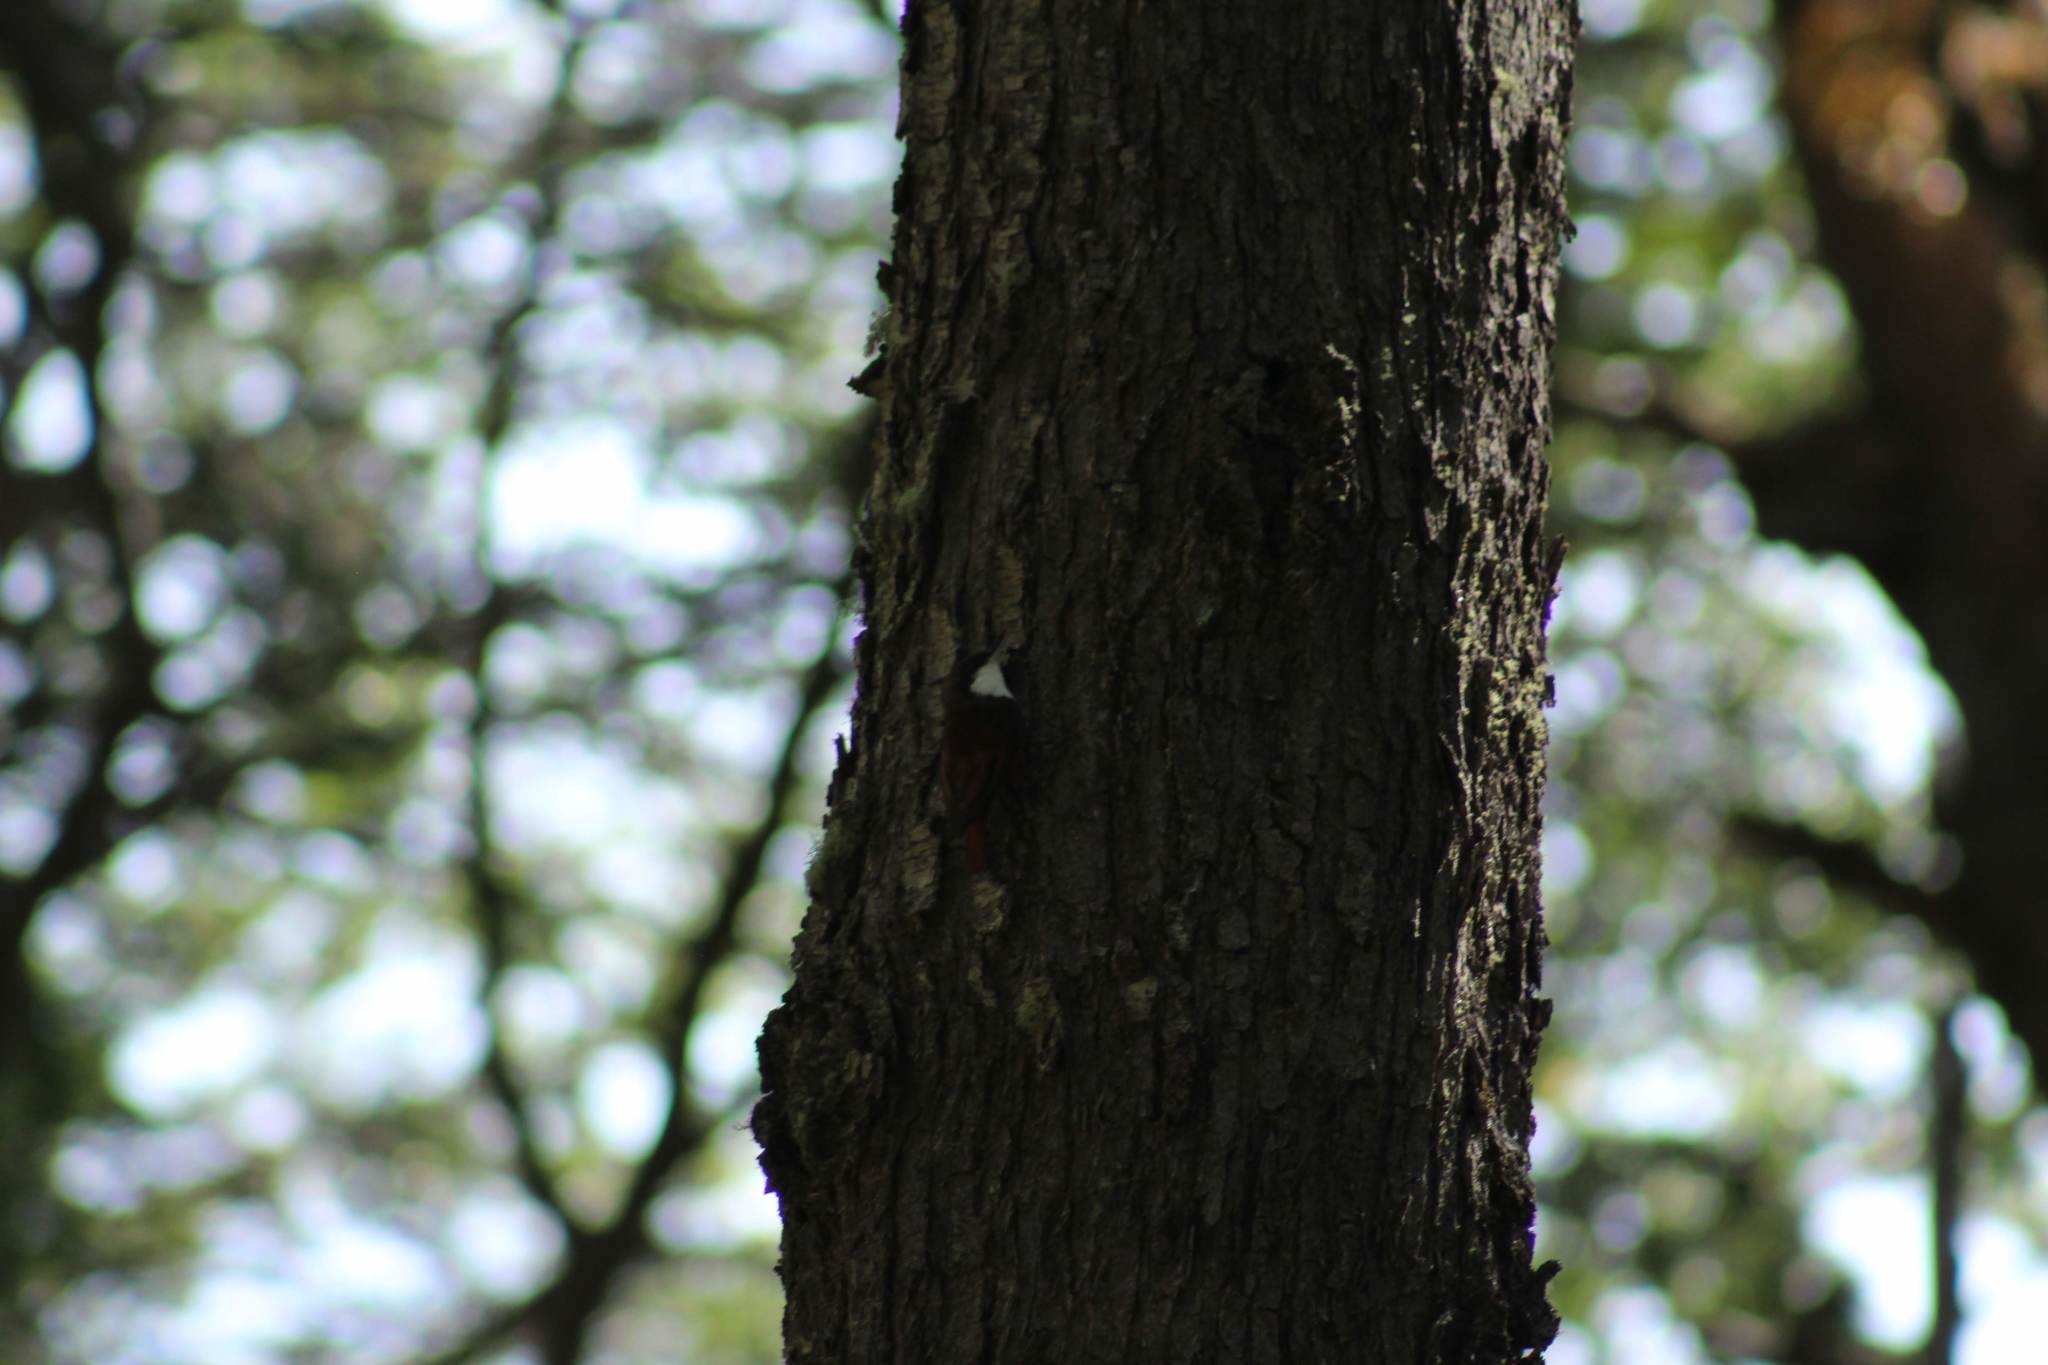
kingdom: Animalia
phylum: Chordata
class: Aves
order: Passeriformes
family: Furnariidae
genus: Pygarrhichas
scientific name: Pygarrhichas albogularis
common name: White-throated treerunner
